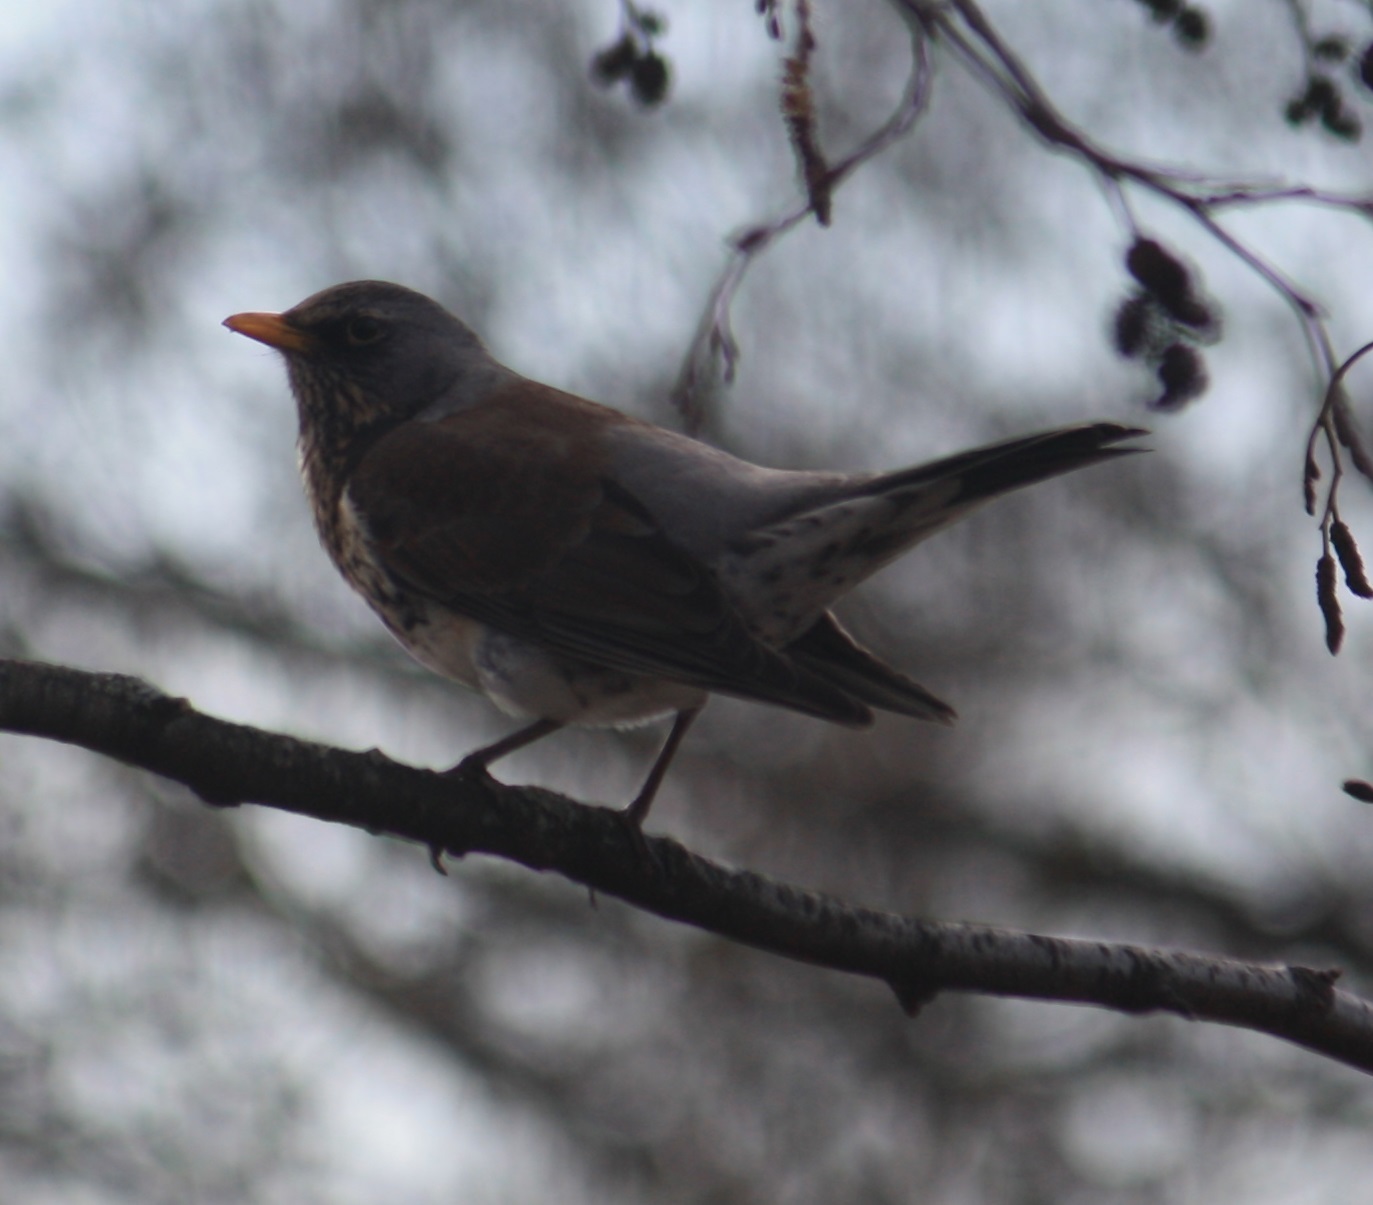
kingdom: Animalia
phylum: Chordata
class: Aves
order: Passeriformes
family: Turdidae
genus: Turdus
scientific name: Turdus pilaris
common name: Fieldfare
